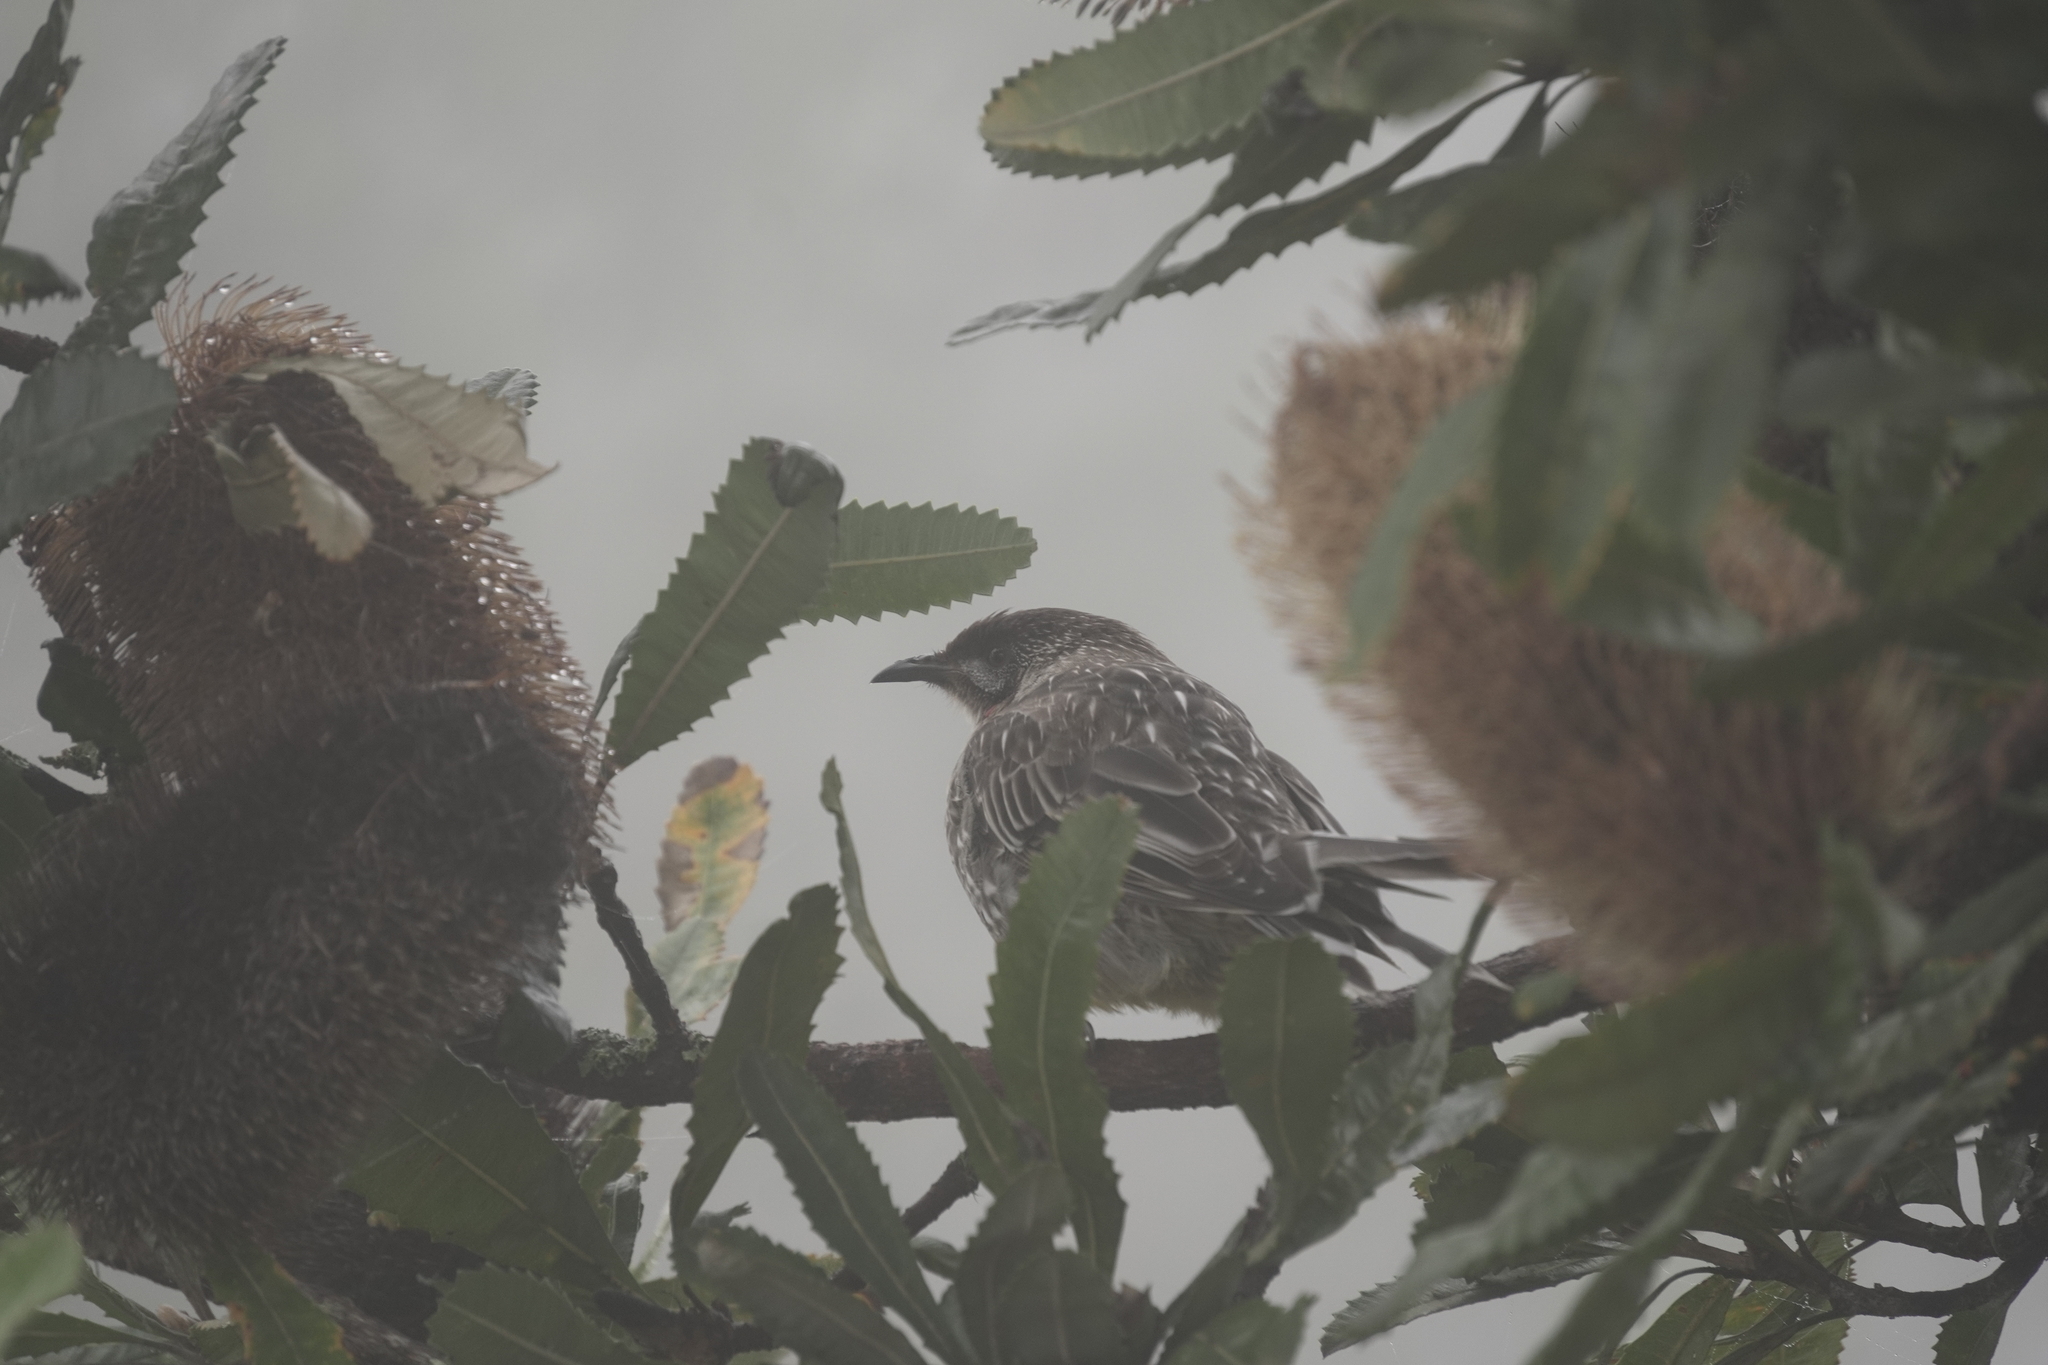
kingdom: Animalia
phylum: Chordata
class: Aves
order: Passeriformes
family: Meliphagidae
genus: Anthochaera
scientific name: Anthochaera carunculata
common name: Red wattlebird
